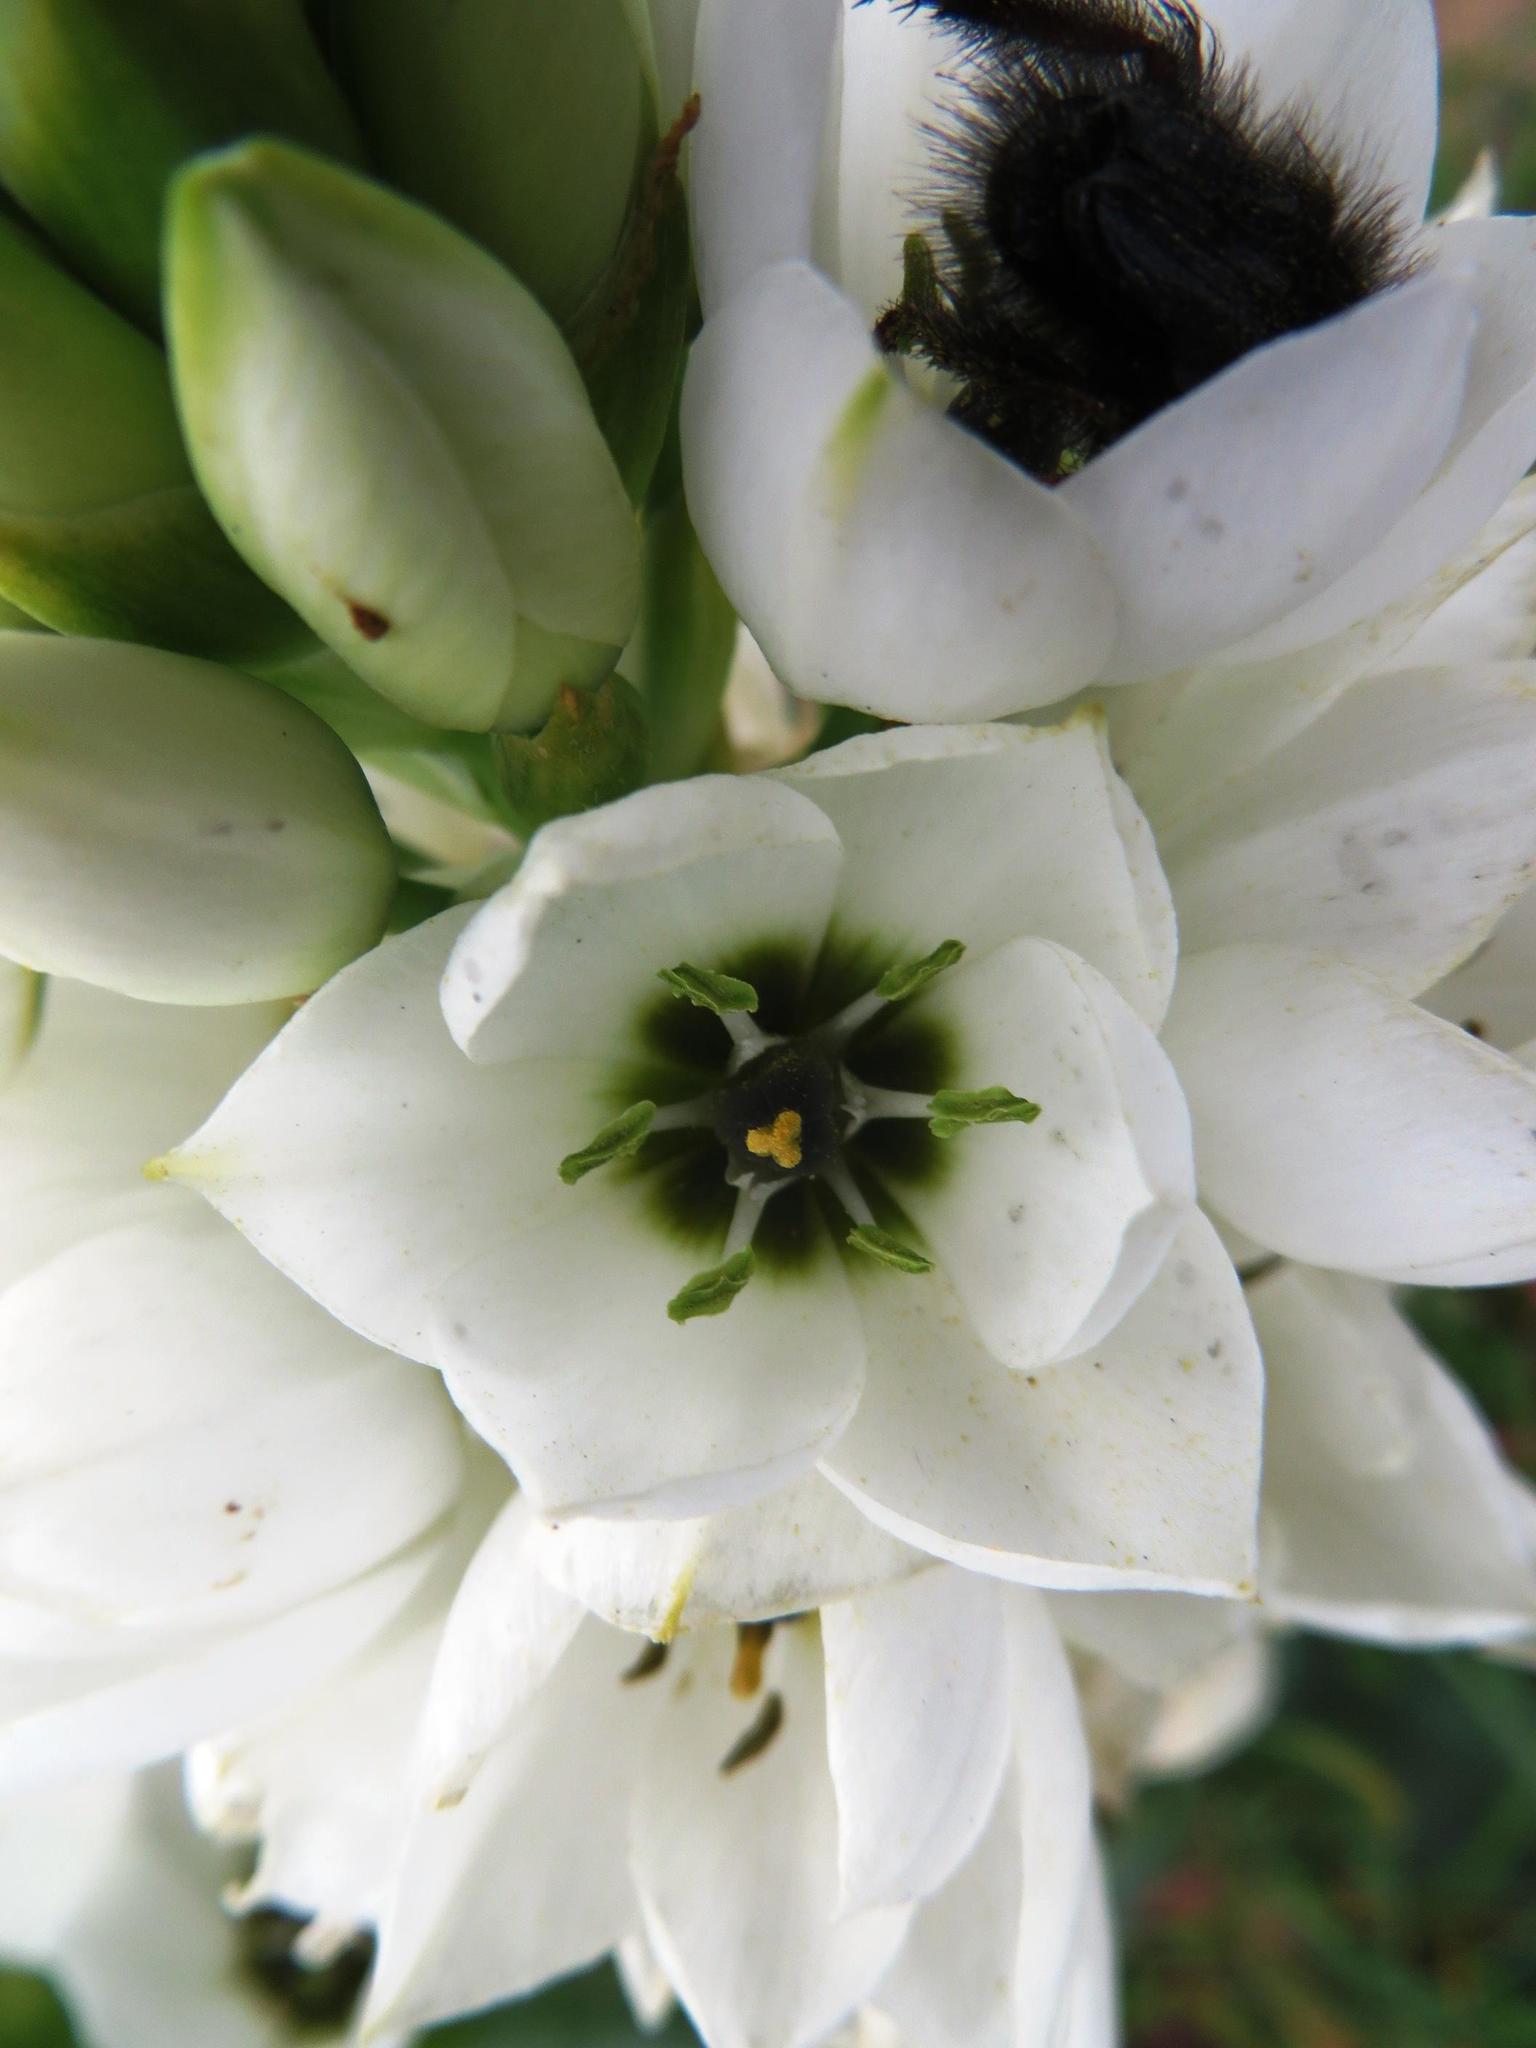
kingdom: Plantae
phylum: Tracheophyta
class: Liliopsida
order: Asparagales
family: Asparagaceae
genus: Ornithogalum
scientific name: Ornithogalum thyrsoides
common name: Chincherinchee
